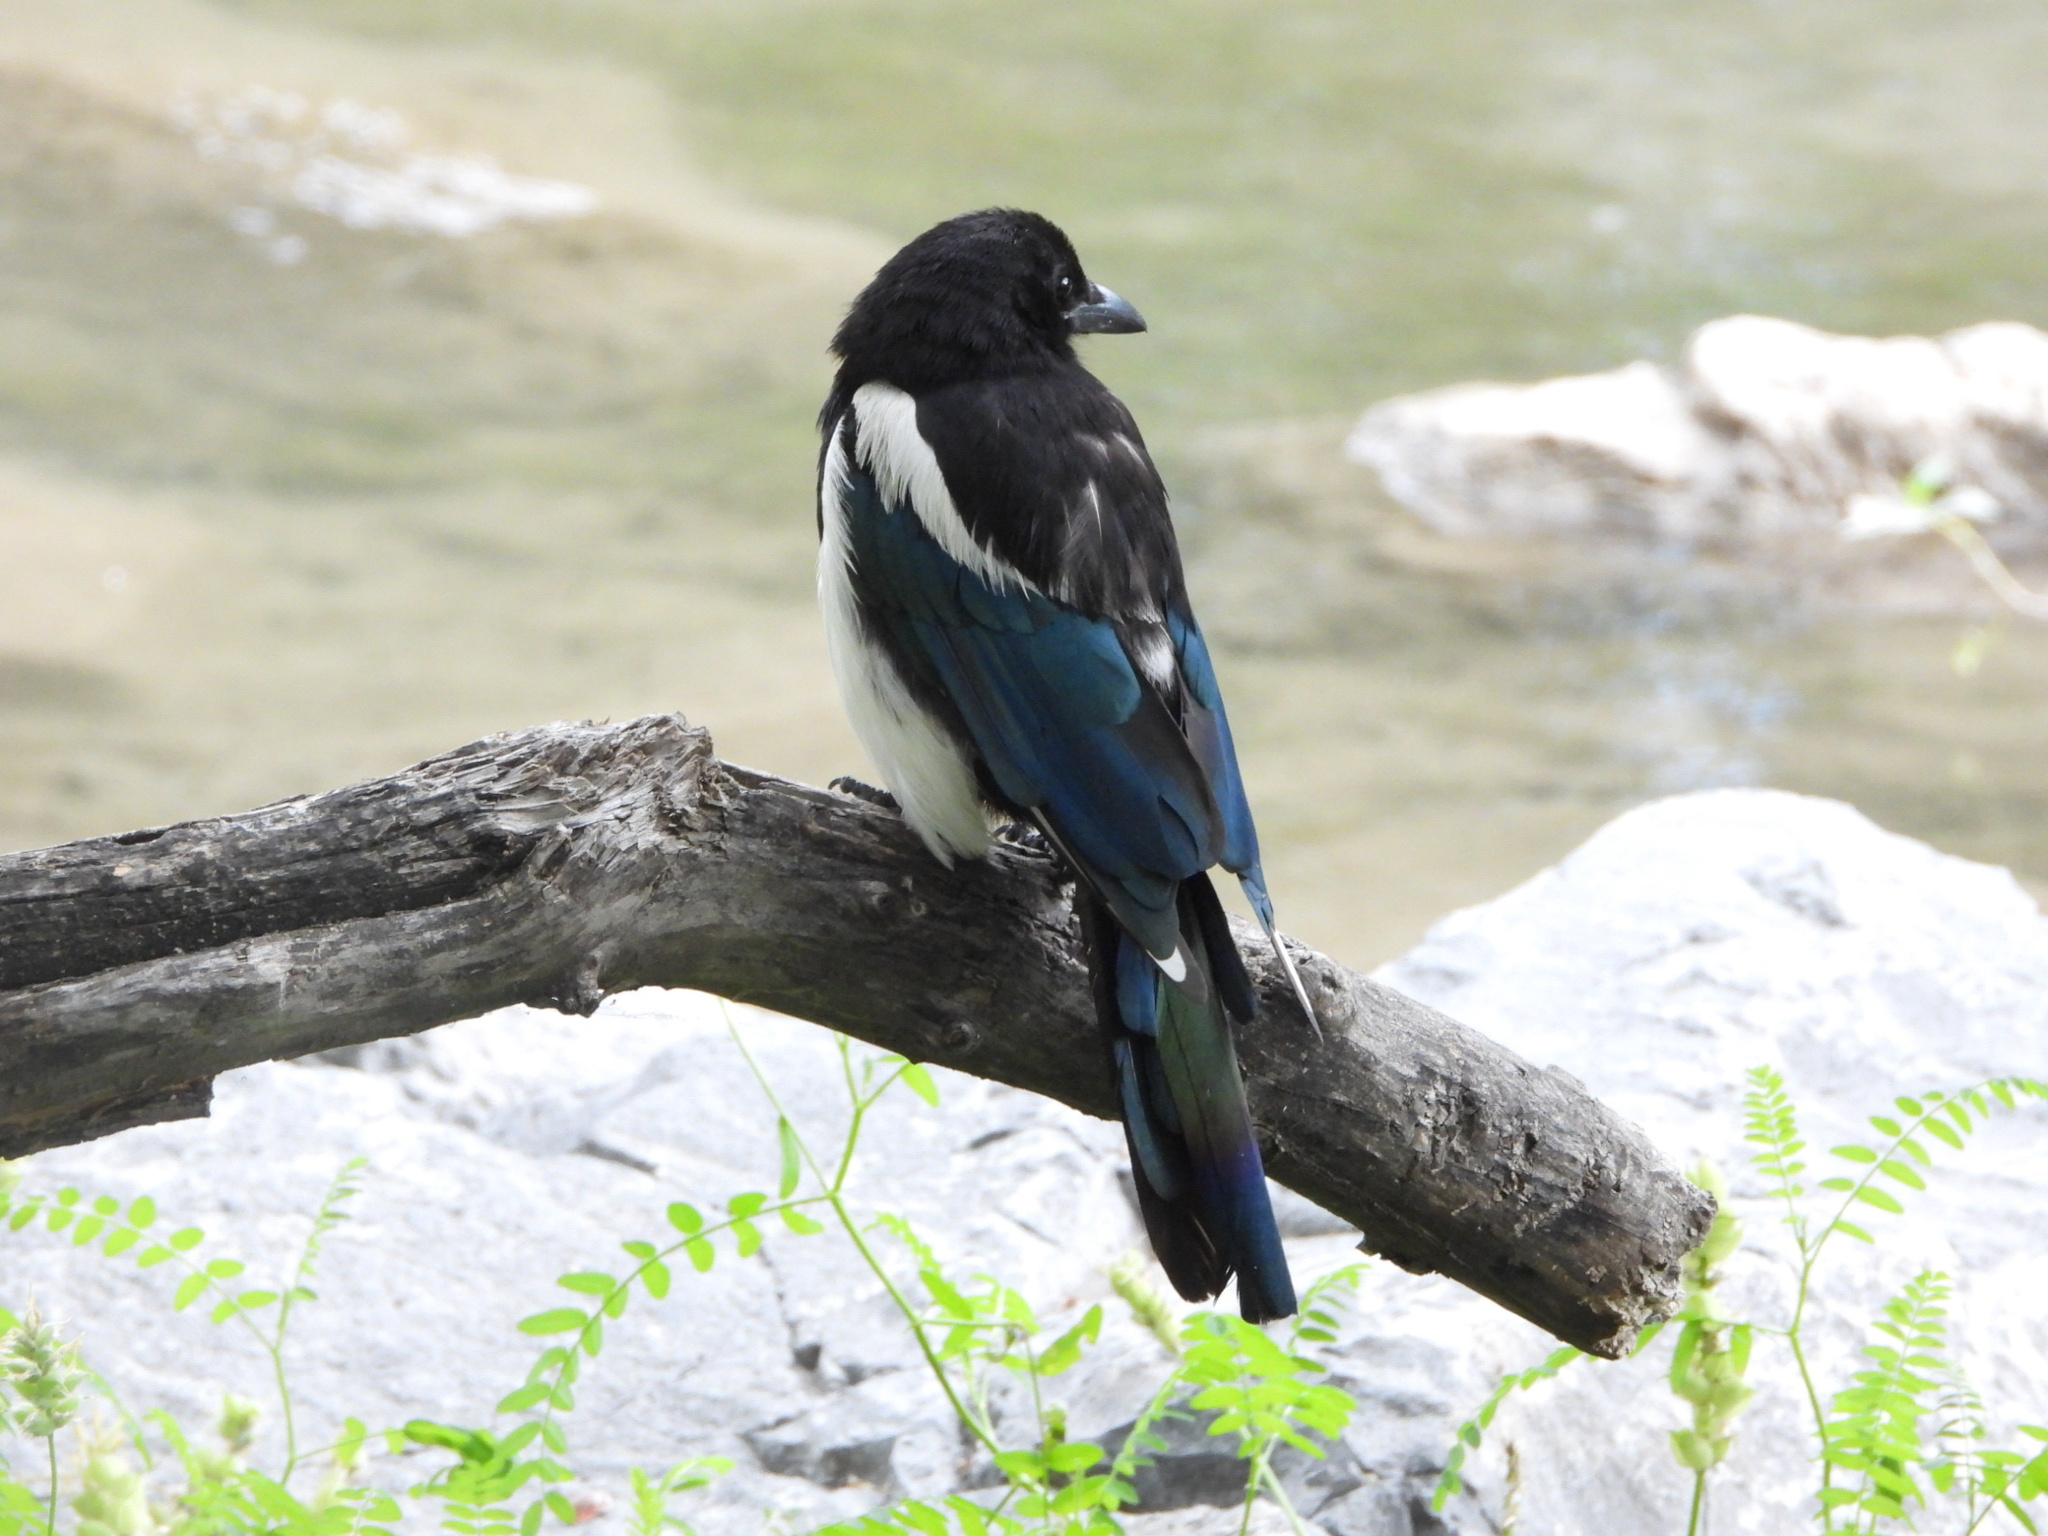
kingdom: Animalia
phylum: Chordata
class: Aves
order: Passeriformes
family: Corvidae
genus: Pica
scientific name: Pica hudsonia
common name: Black-billed magpie
